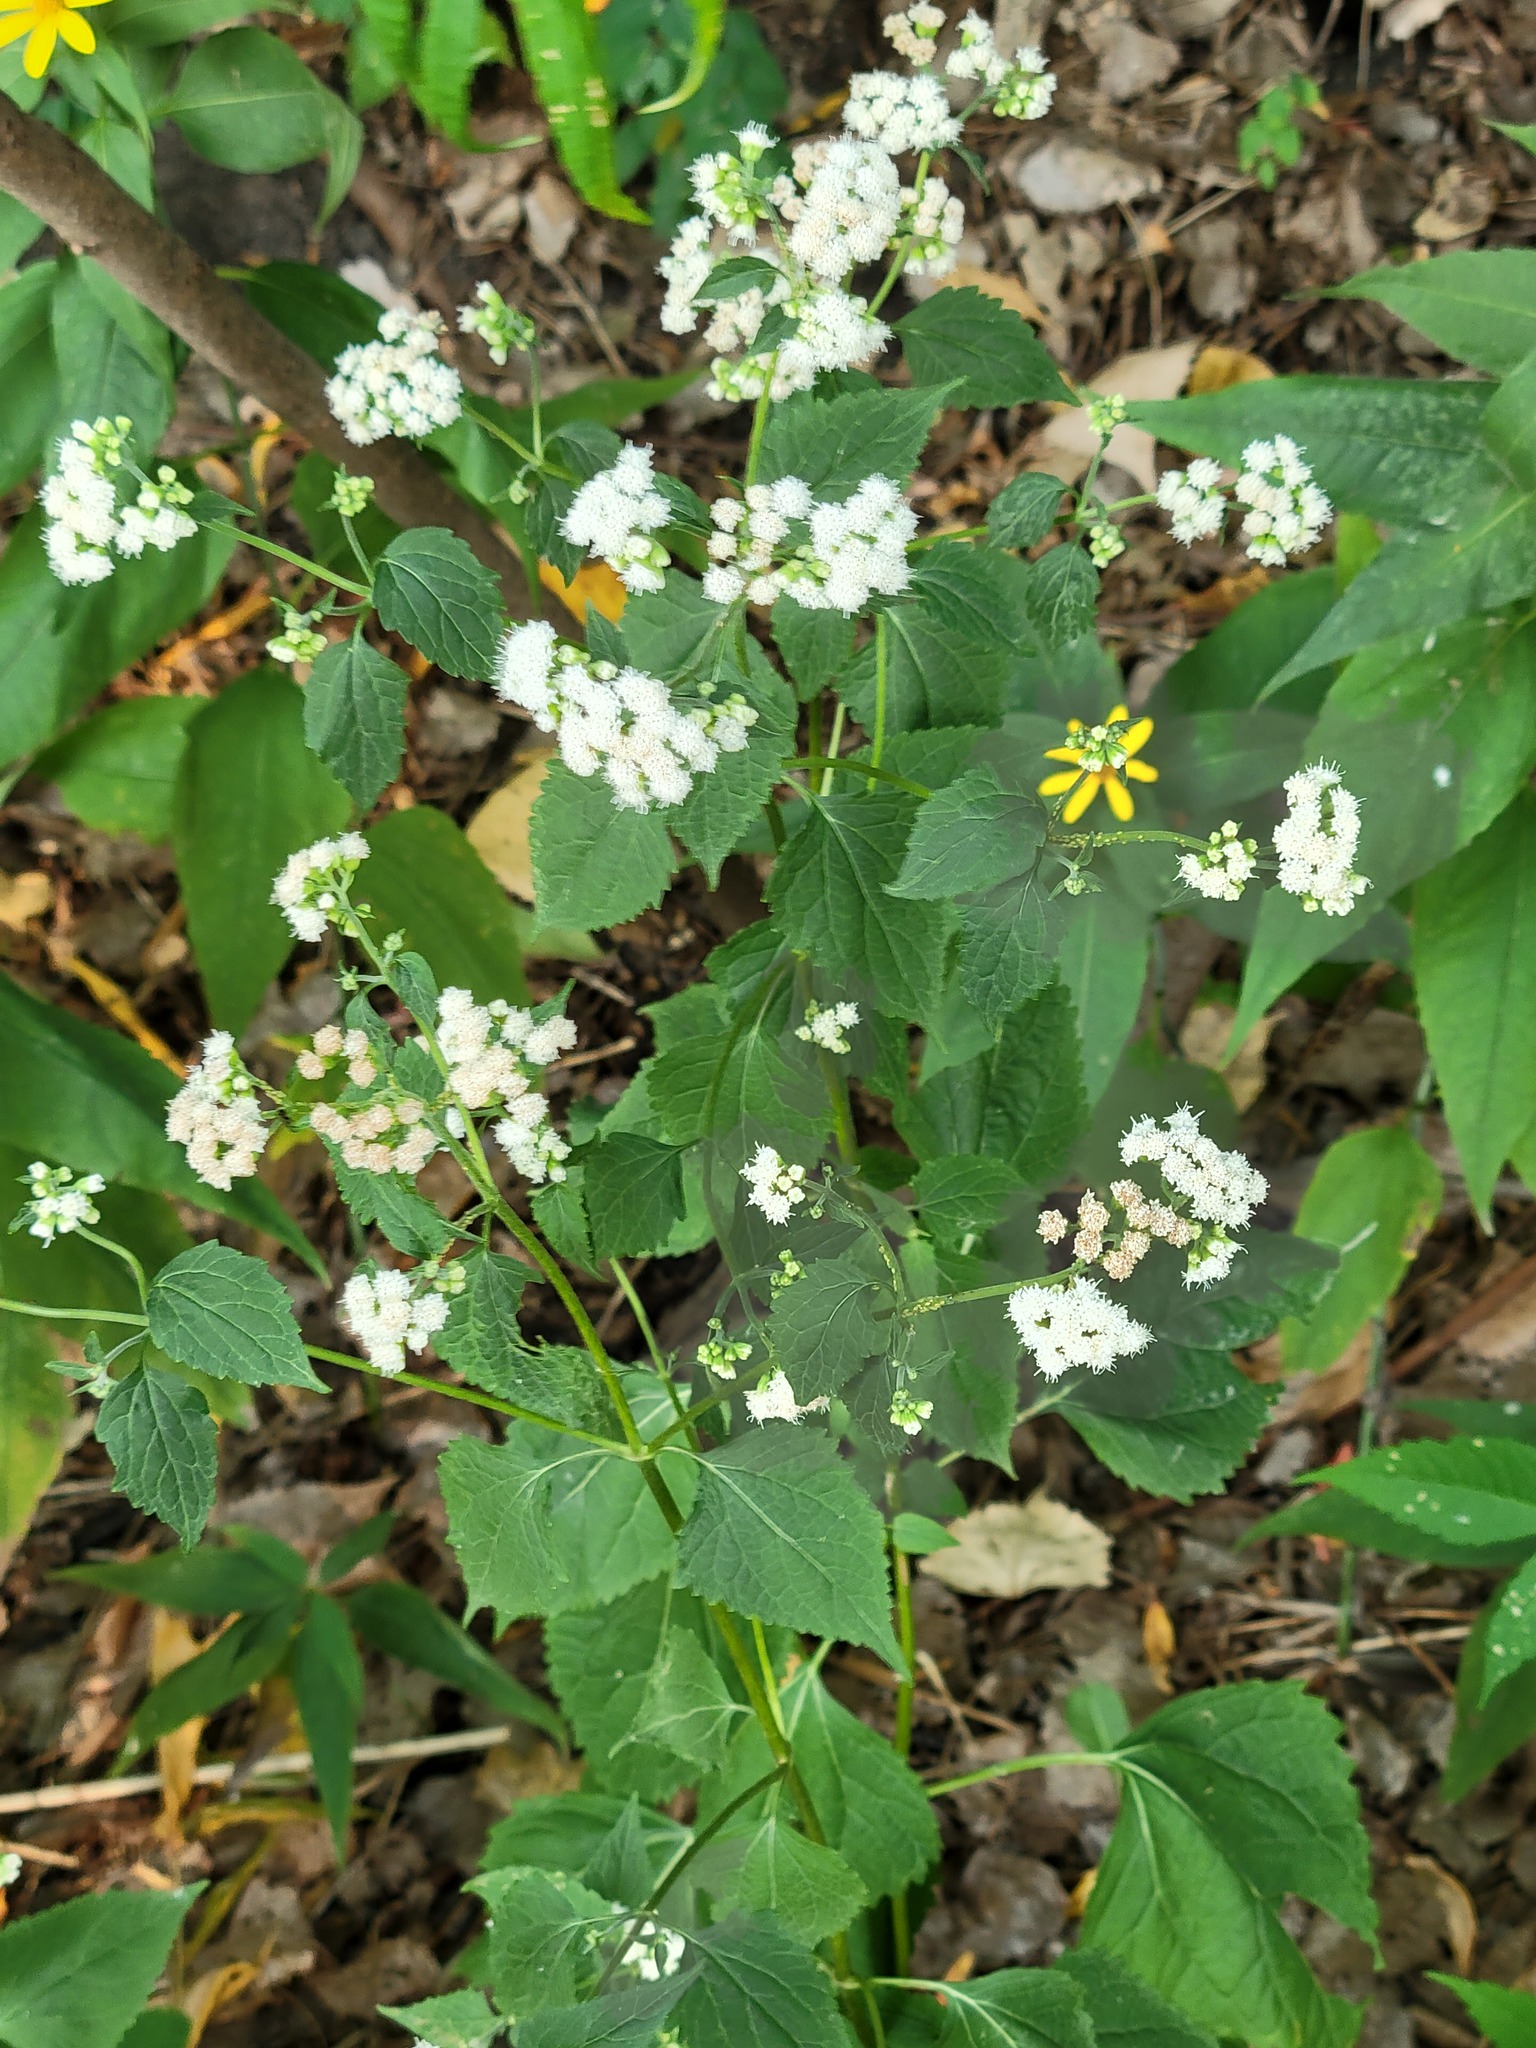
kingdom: Plantae
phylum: Tracheophyta
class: Magnoliopsida
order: Asterales
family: Asteraceae
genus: Ageratina
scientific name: Ageratina altissima
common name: White snakeroot
